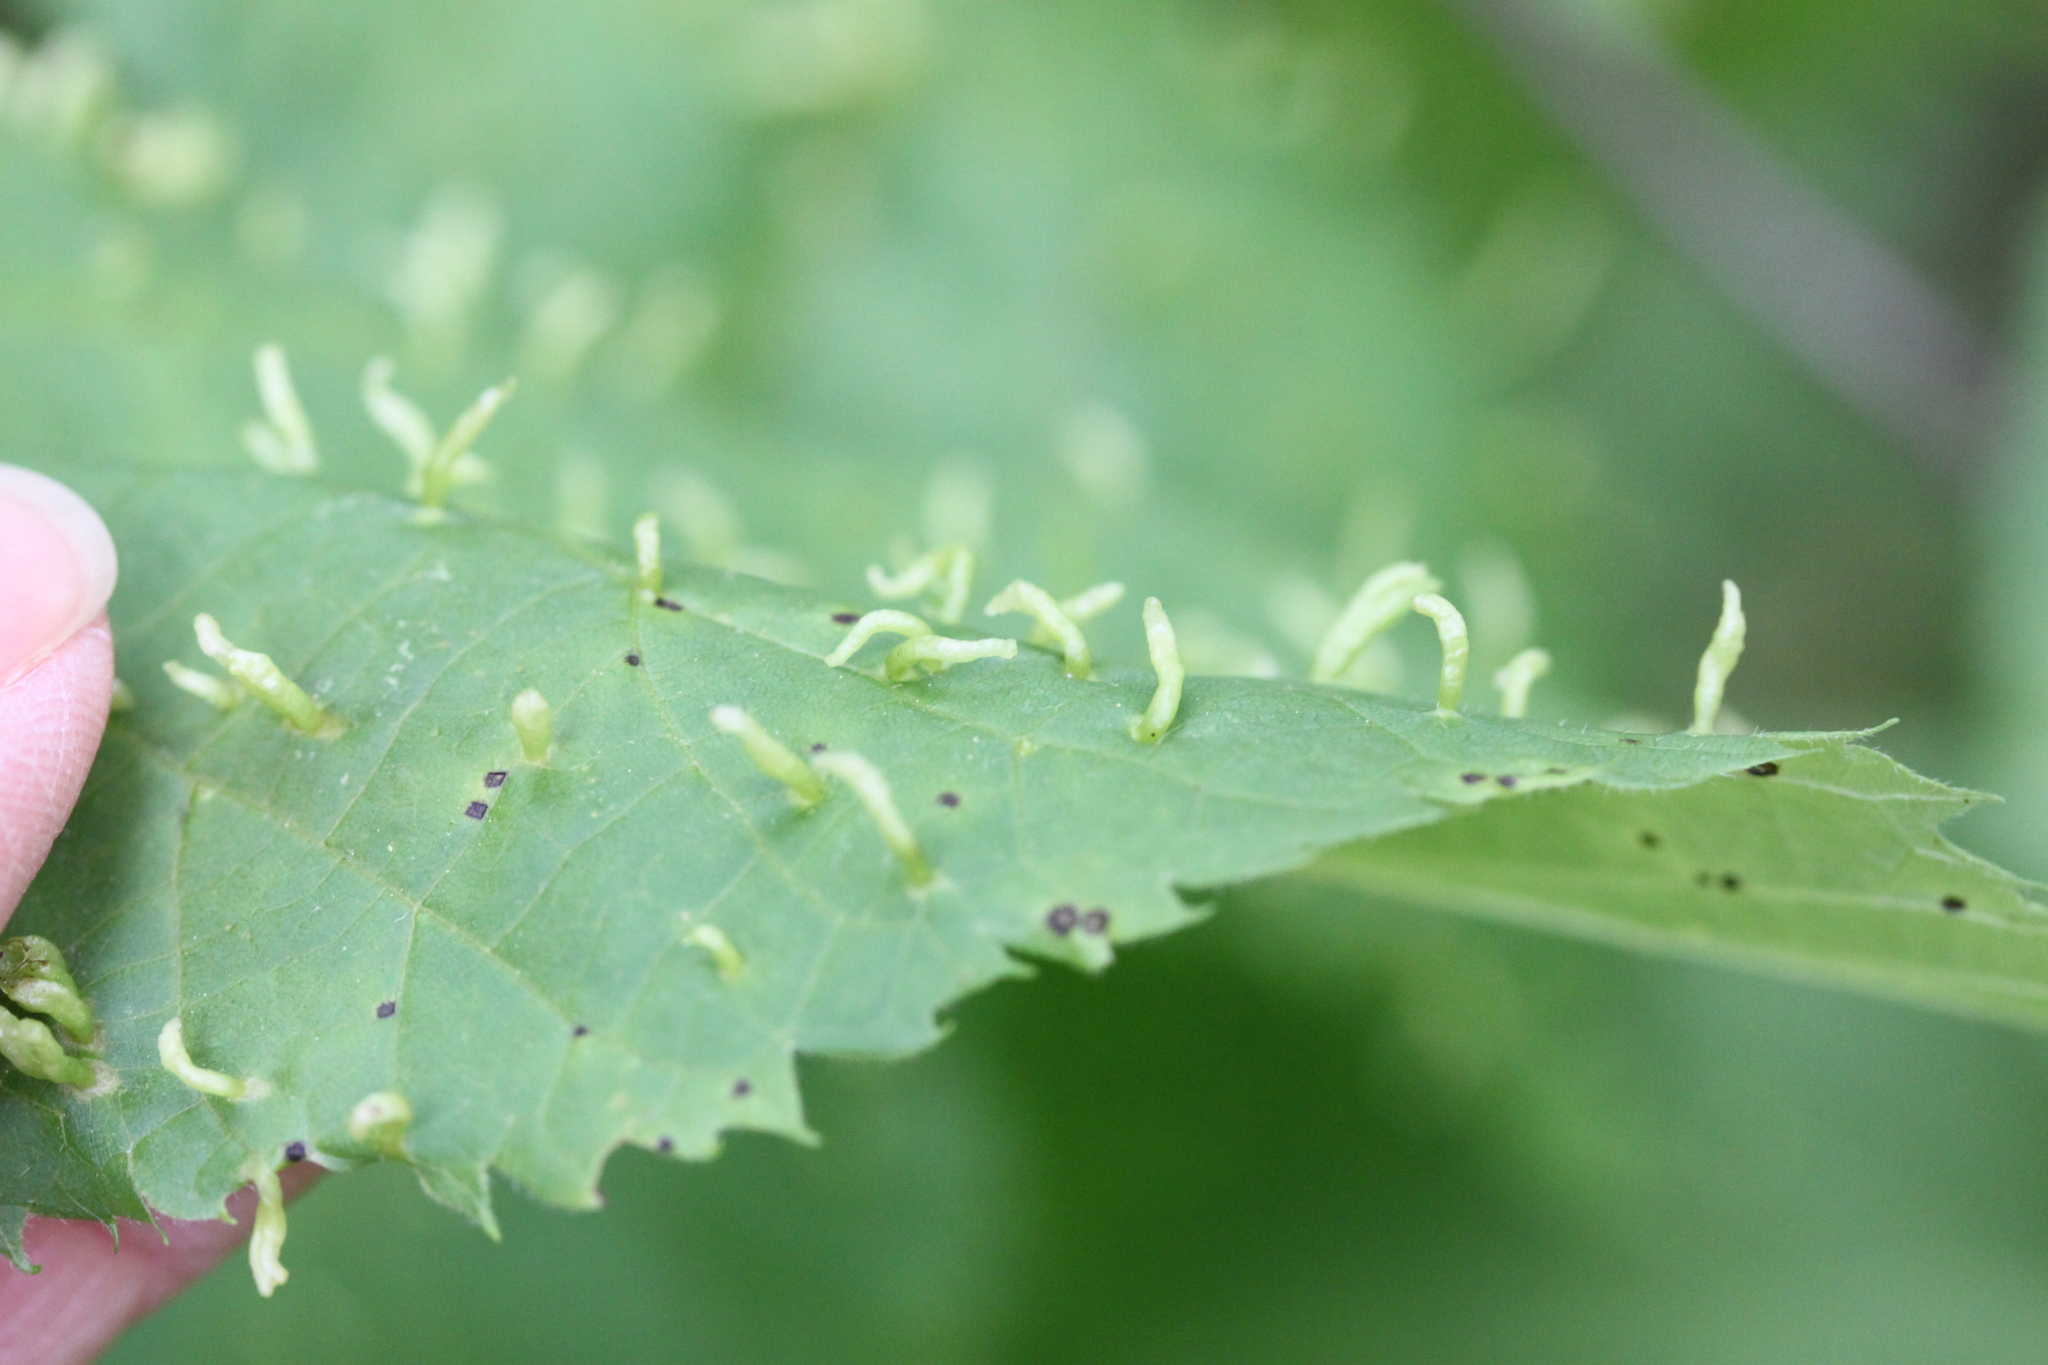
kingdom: Animalia
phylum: Arthropoda
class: Arachnida
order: Trombidiformes
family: Eriophyidae
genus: Eriophyes
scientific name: Eriophyes tiliae
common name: Red nail gall mite
